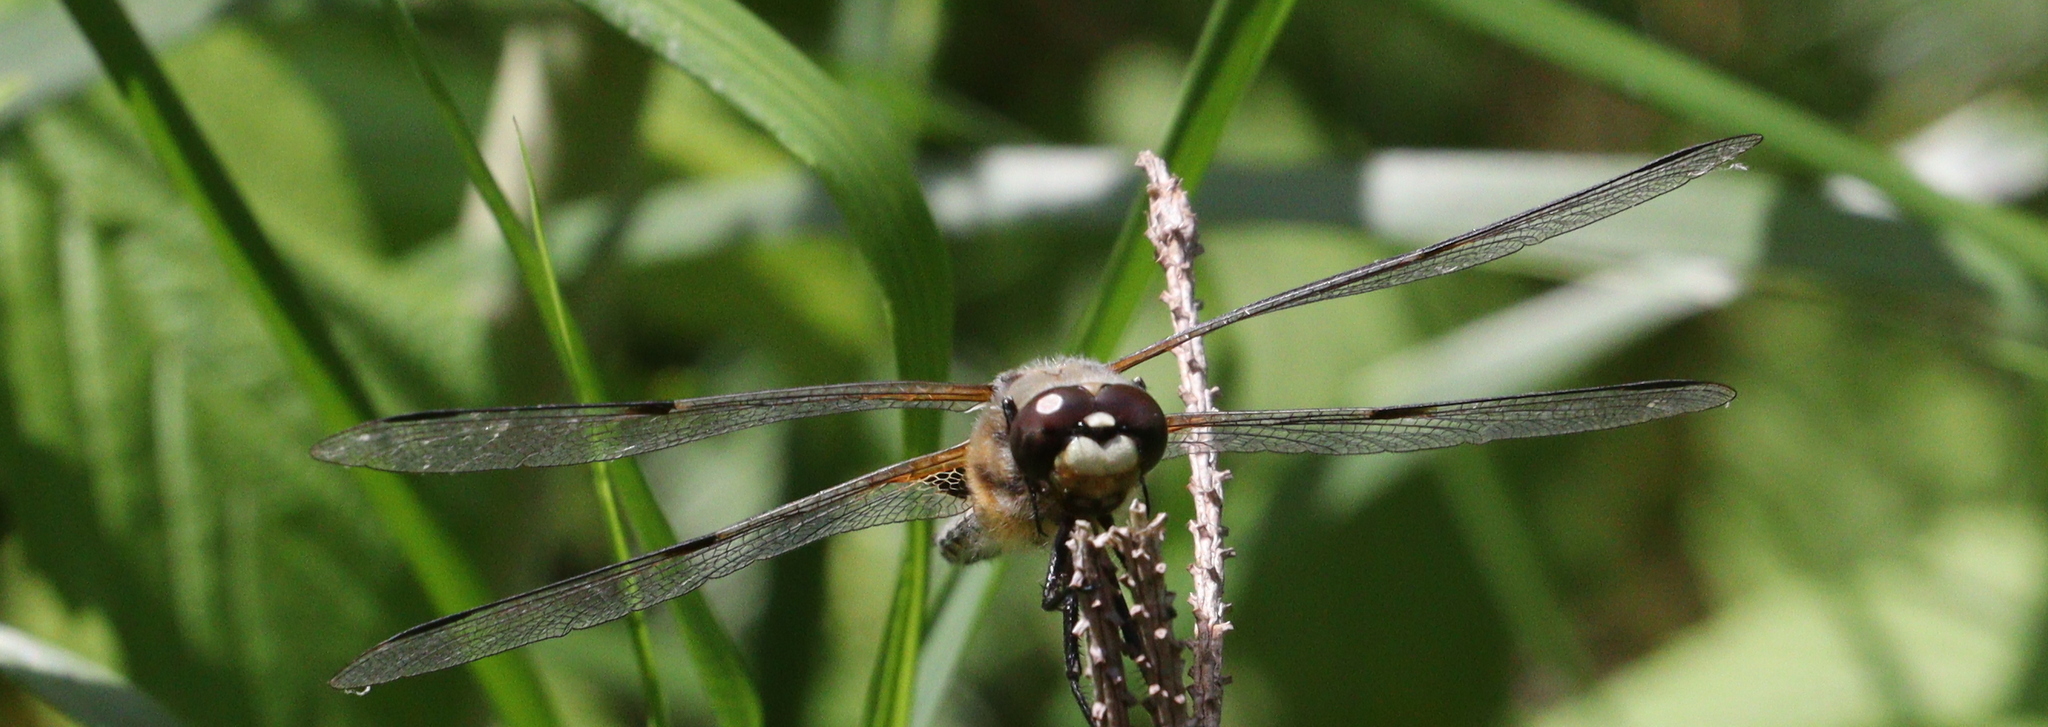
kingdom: Animalia
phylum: Arthropoda
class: Insecta
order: Odonata
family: Libellulidae
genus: Libellula
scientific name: Libellula quadrimaculata
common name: Four-spotted chaser
